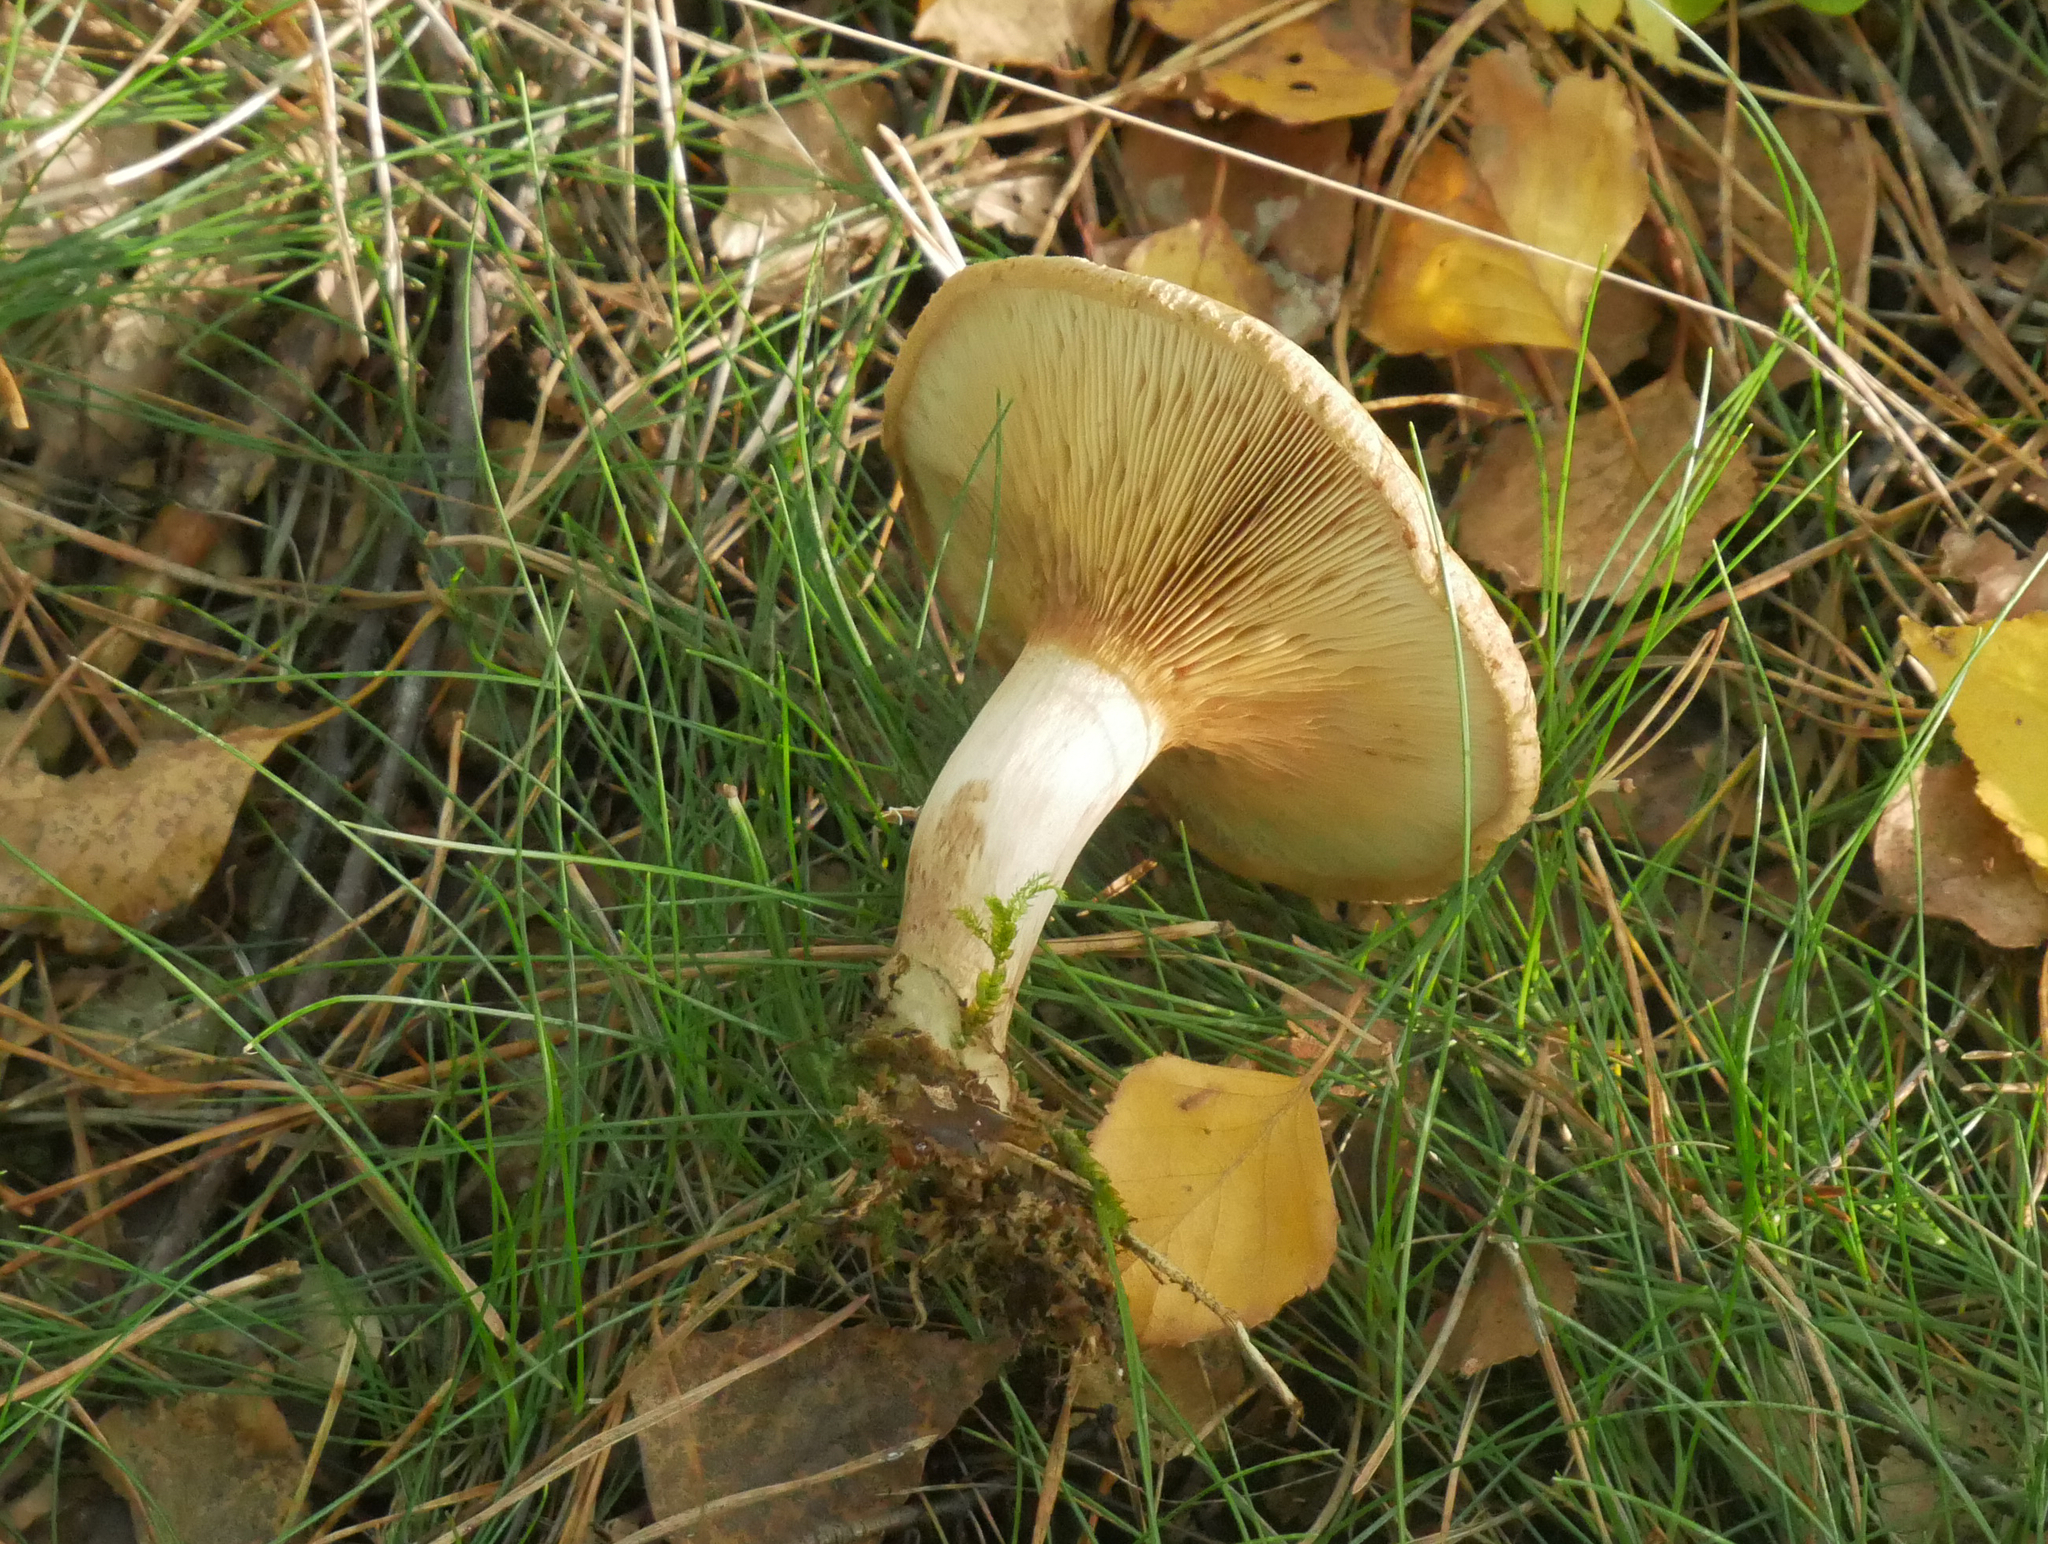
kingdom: Fungi
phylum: Basidiomycota
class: Agaricomycetes
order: Boletales
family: Paxillaceae
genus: Paxillus
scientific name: Paxillus involutus
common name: Brown roll rim
